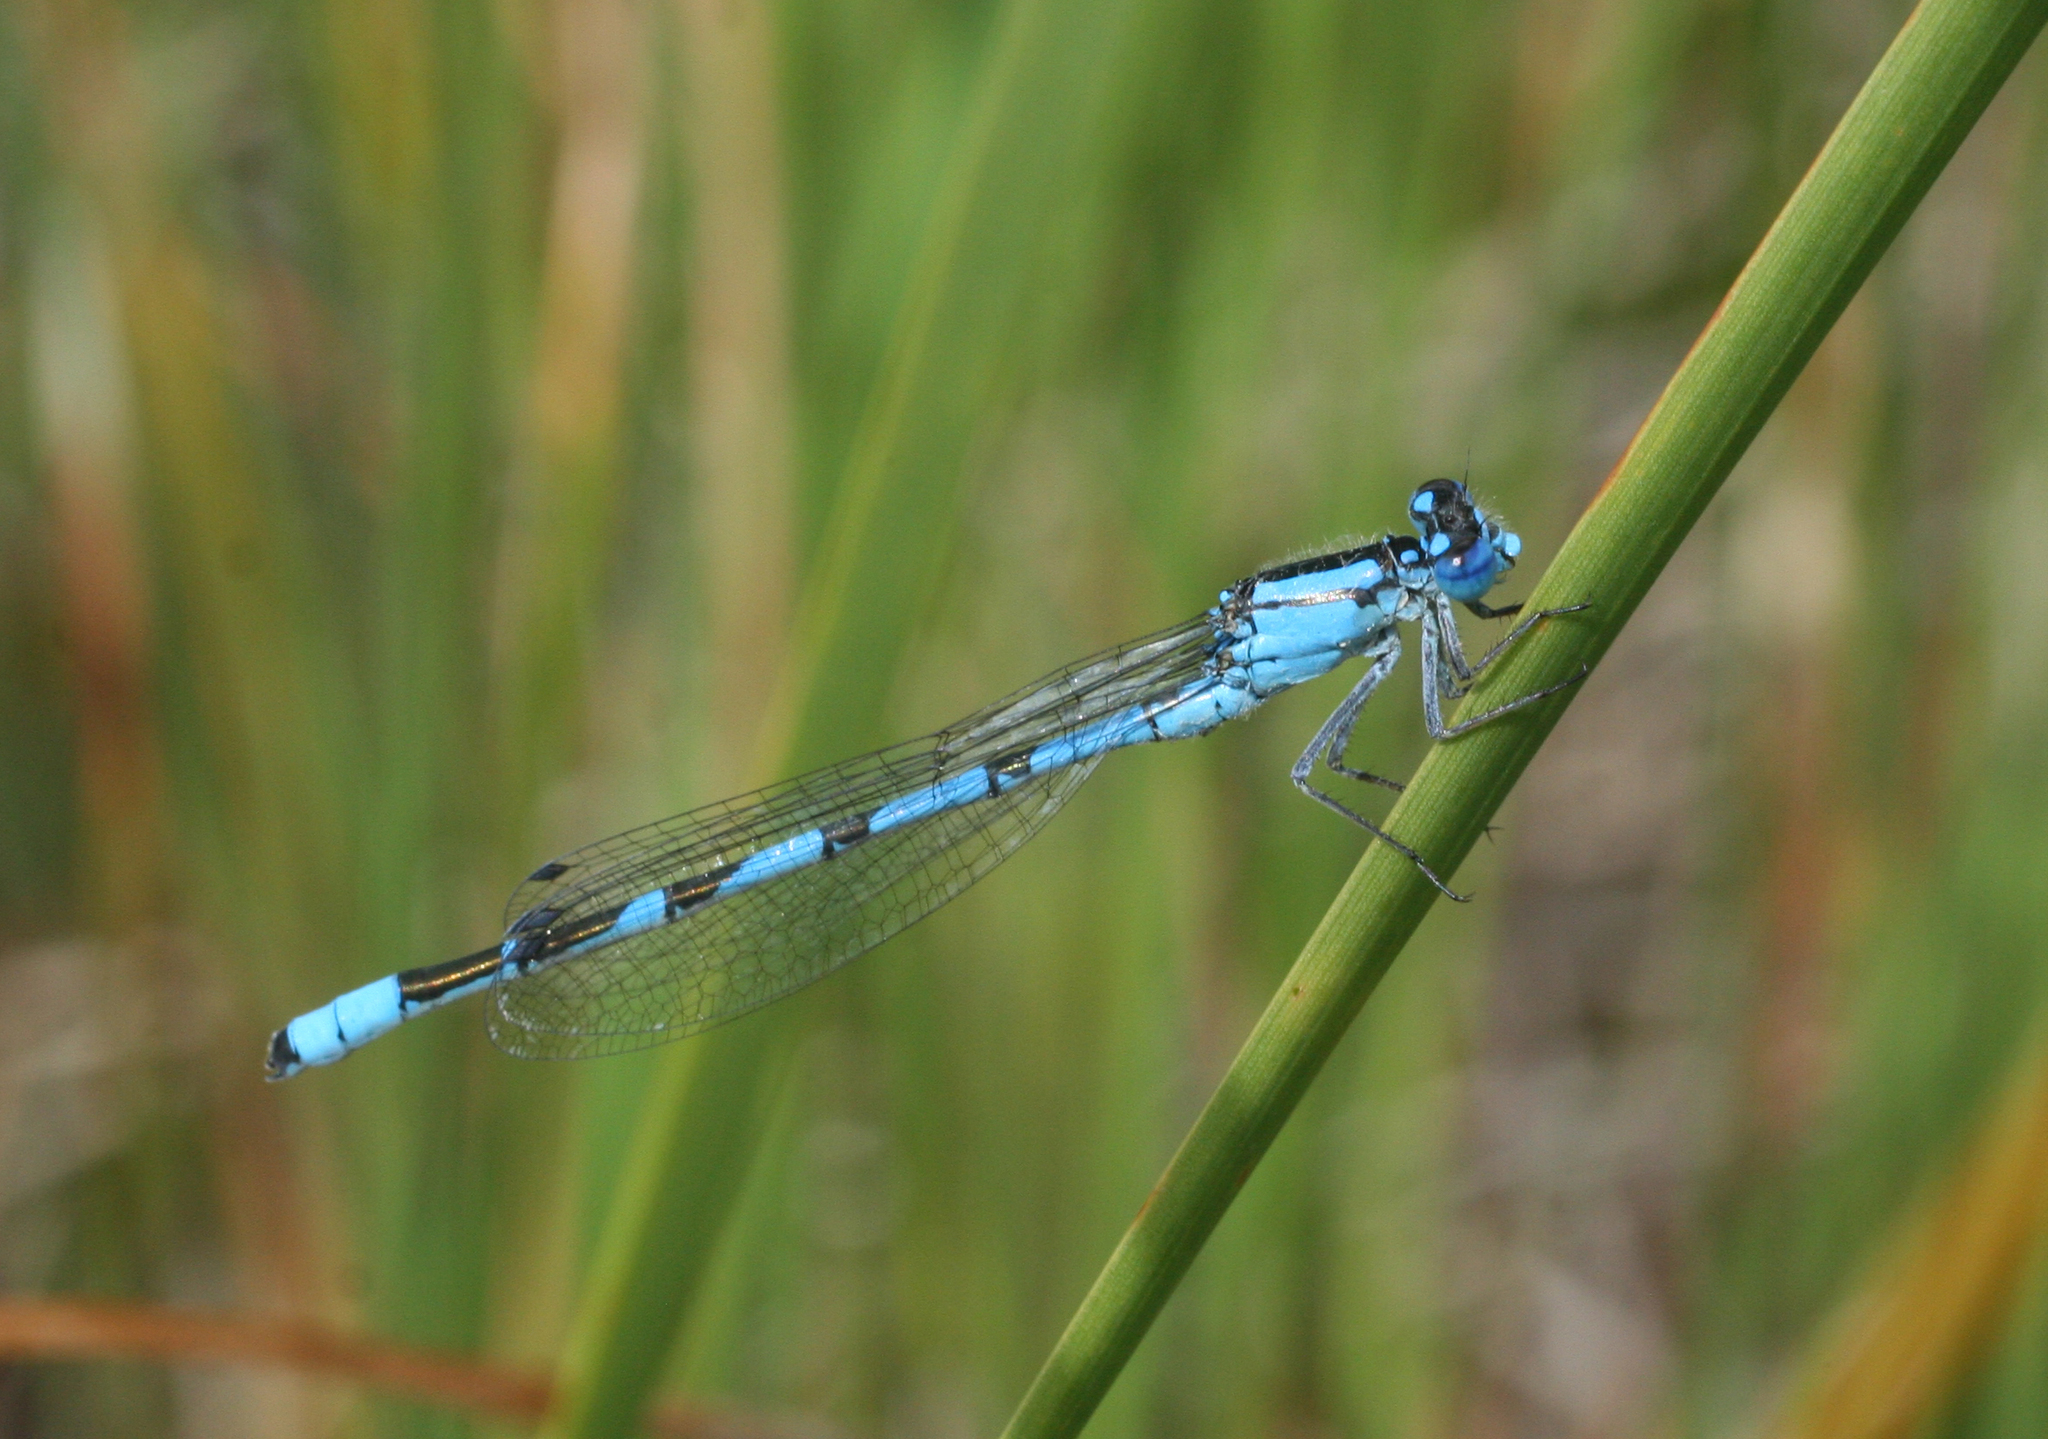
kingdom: Animalia
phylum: Arthropoda
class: Insecta
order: Odonata
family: Coenagrionidae
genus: Enallagma
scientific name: Enallagma cyathigerum
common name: Common blue damselfly
